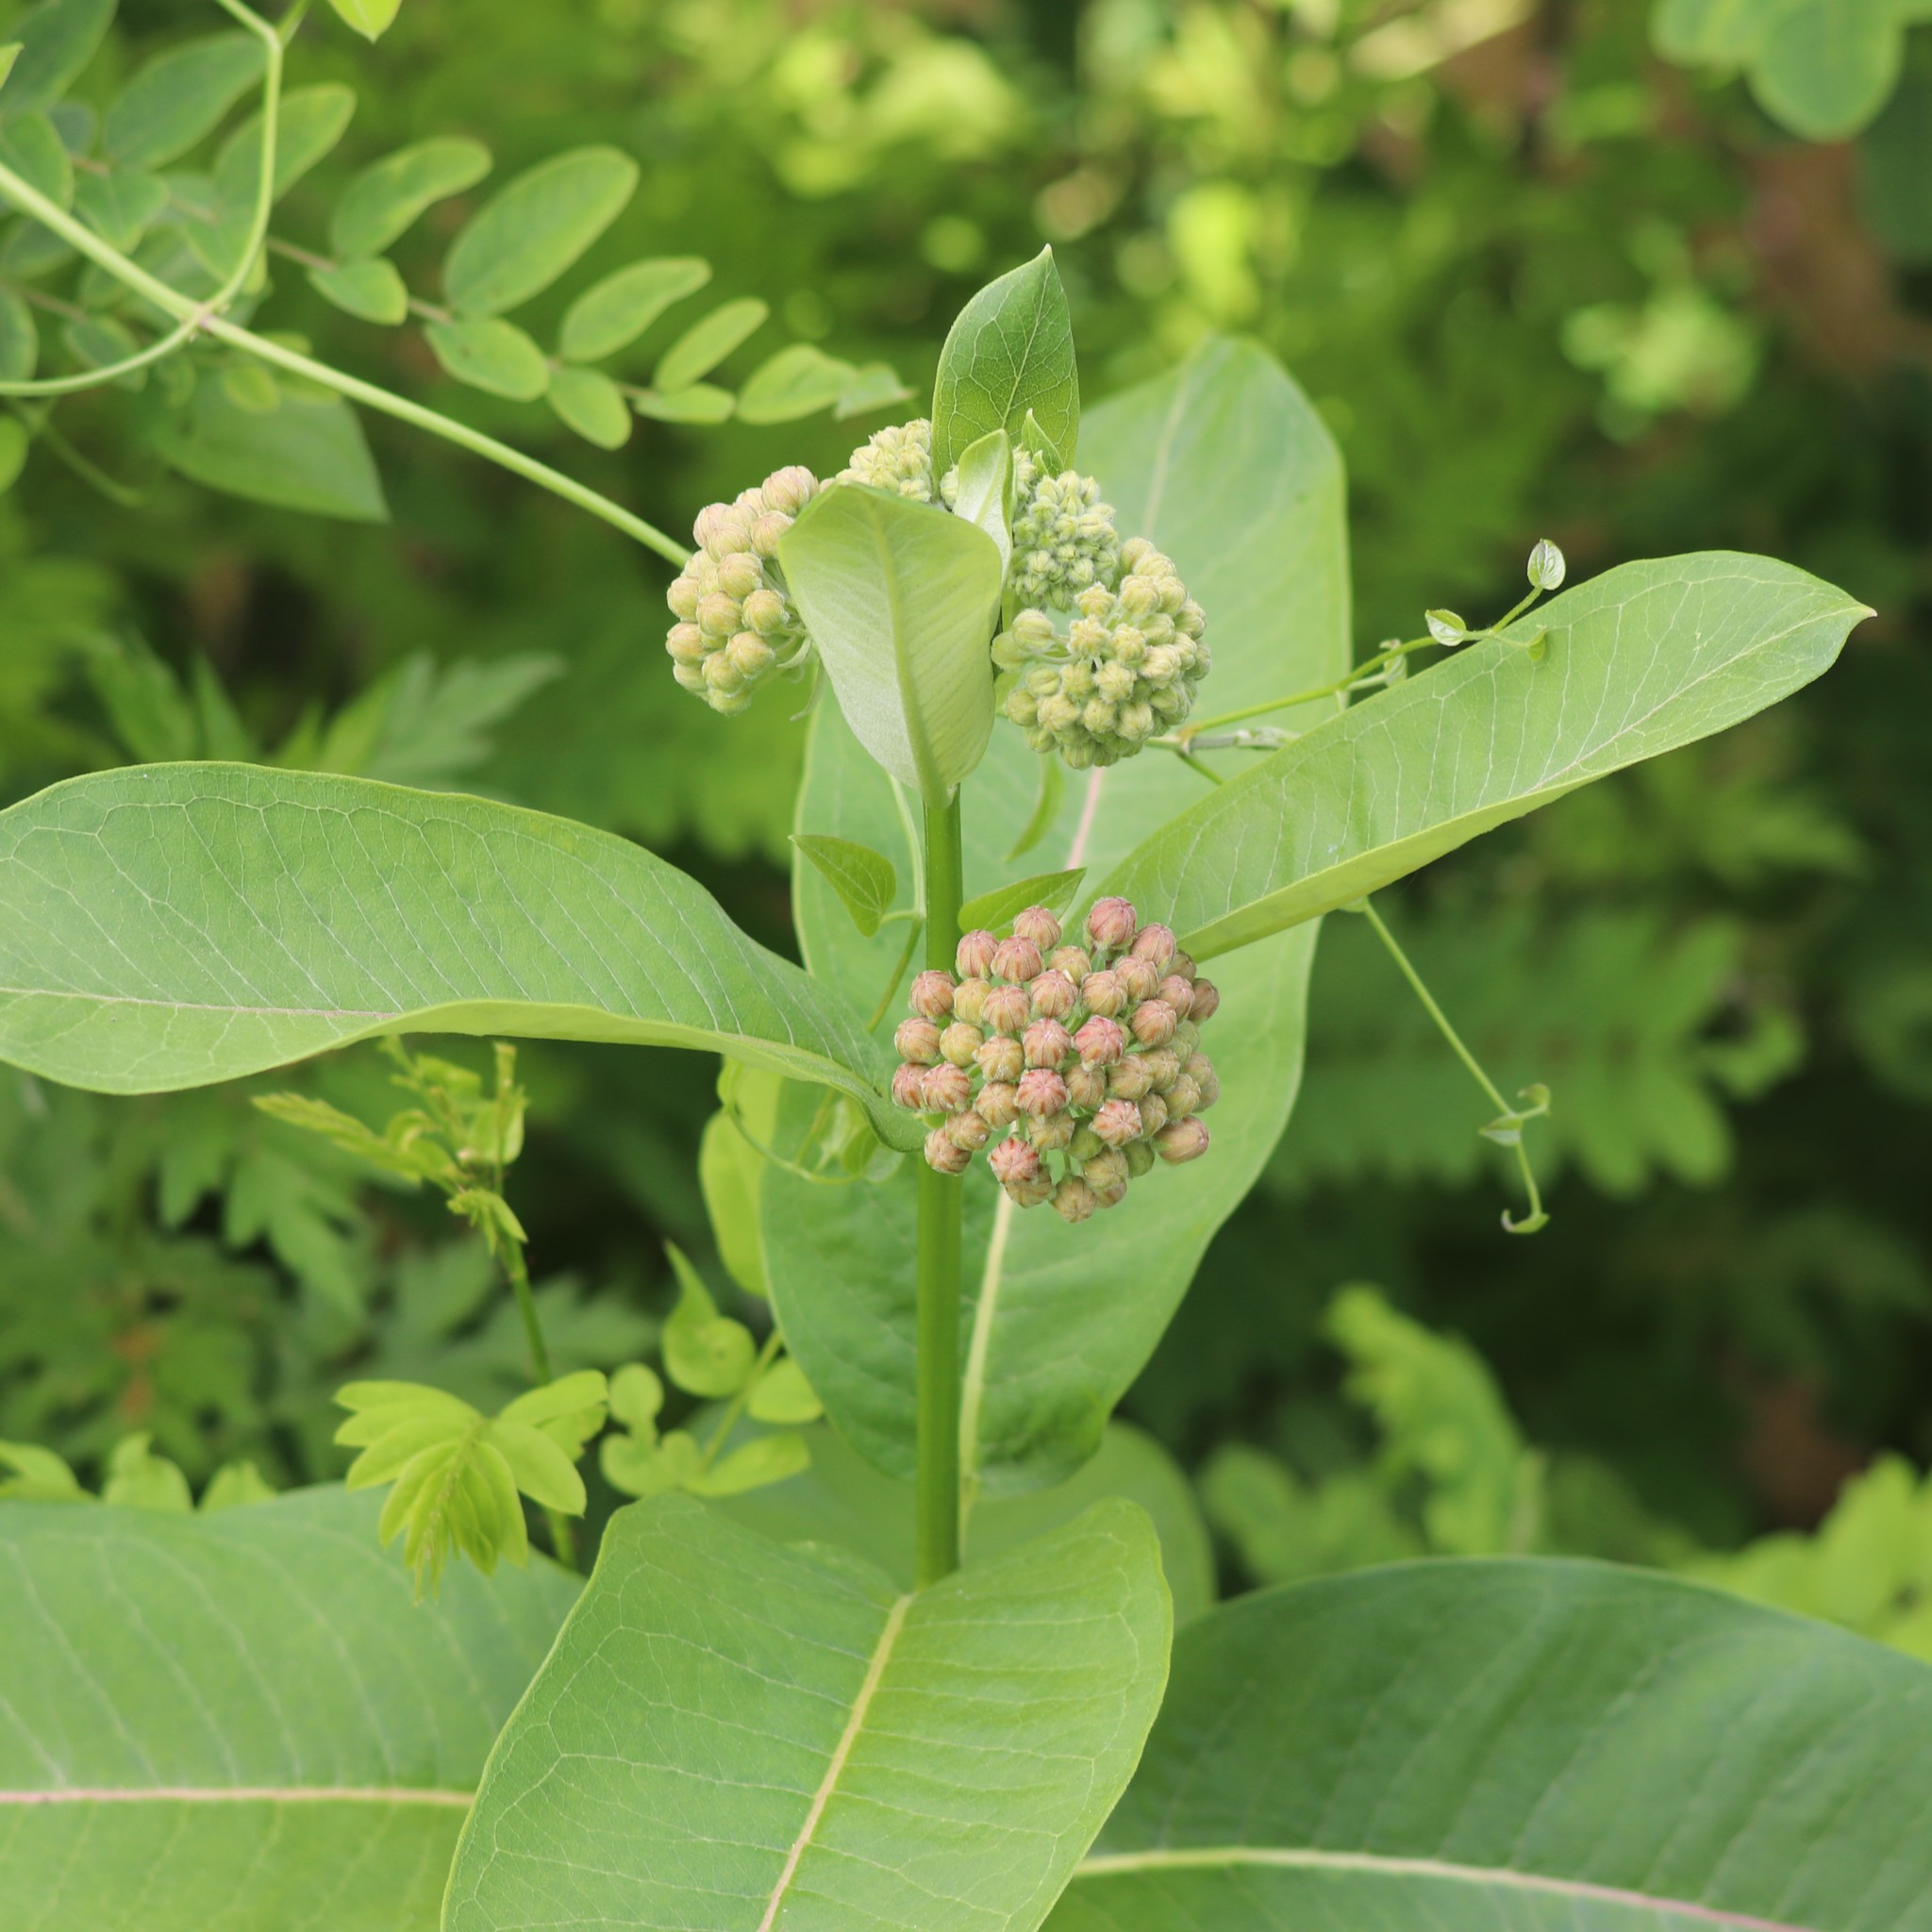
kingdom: Plantae
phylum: Tracheophyta
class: Magnoliopsida
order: Gentianales
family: Apocynaceae
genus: Asclepias
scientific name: Asclepias syriaca
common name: Common milkweed
